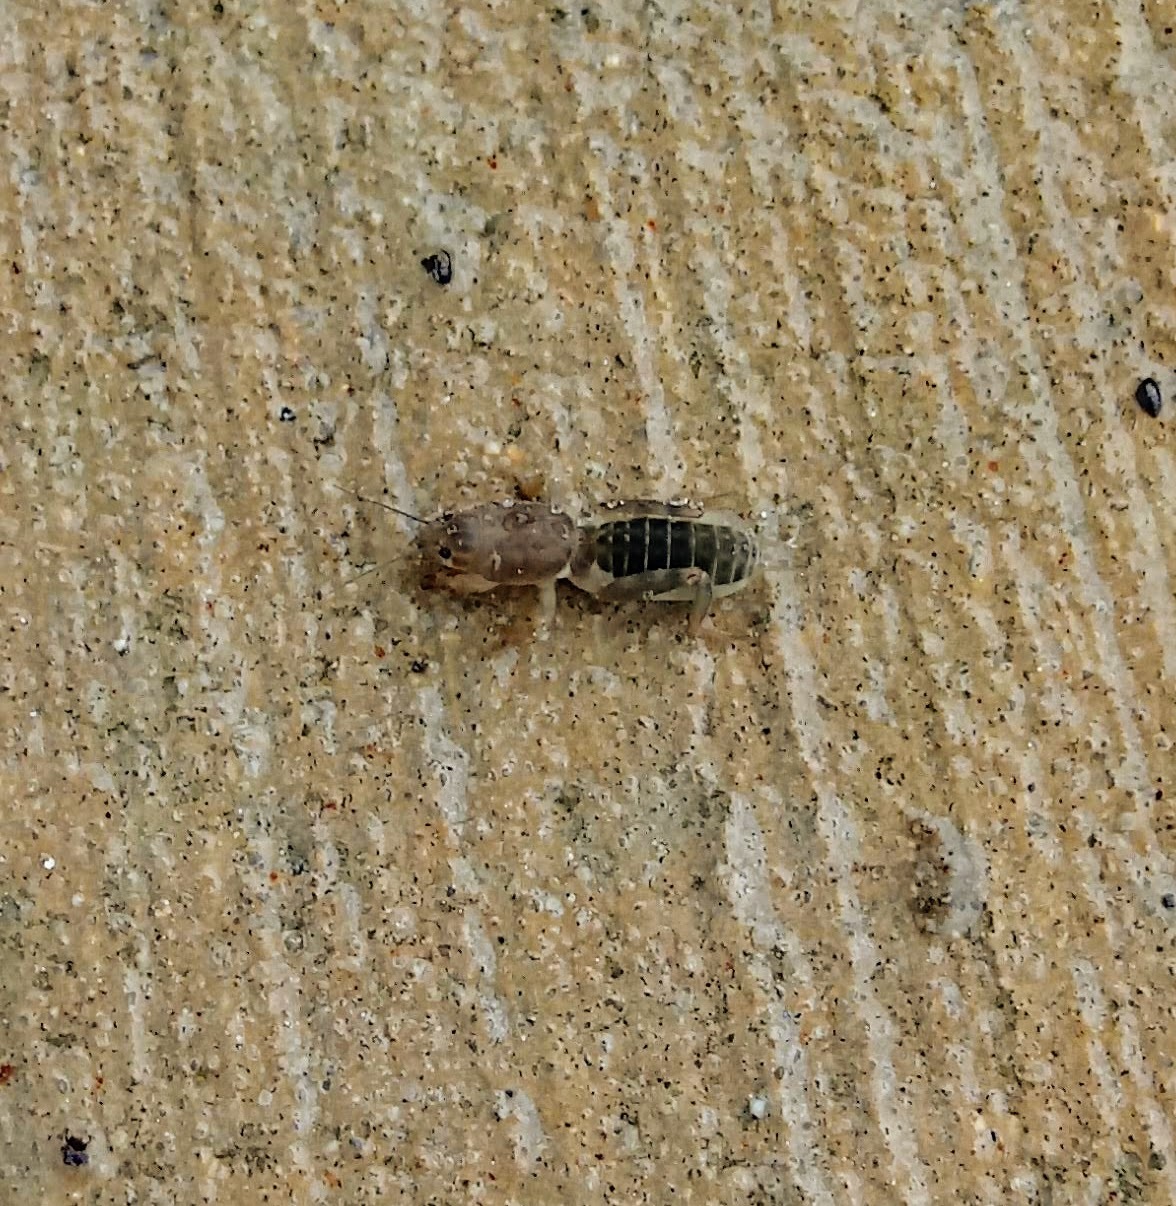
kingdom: Animalia
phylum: Arthropoda
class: Insecta
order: Orthoptera
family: Gryllotalpidae
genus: Neoscapteriscus
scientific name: Neoscapteriscus vicinus
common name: Tawny mole cricket
